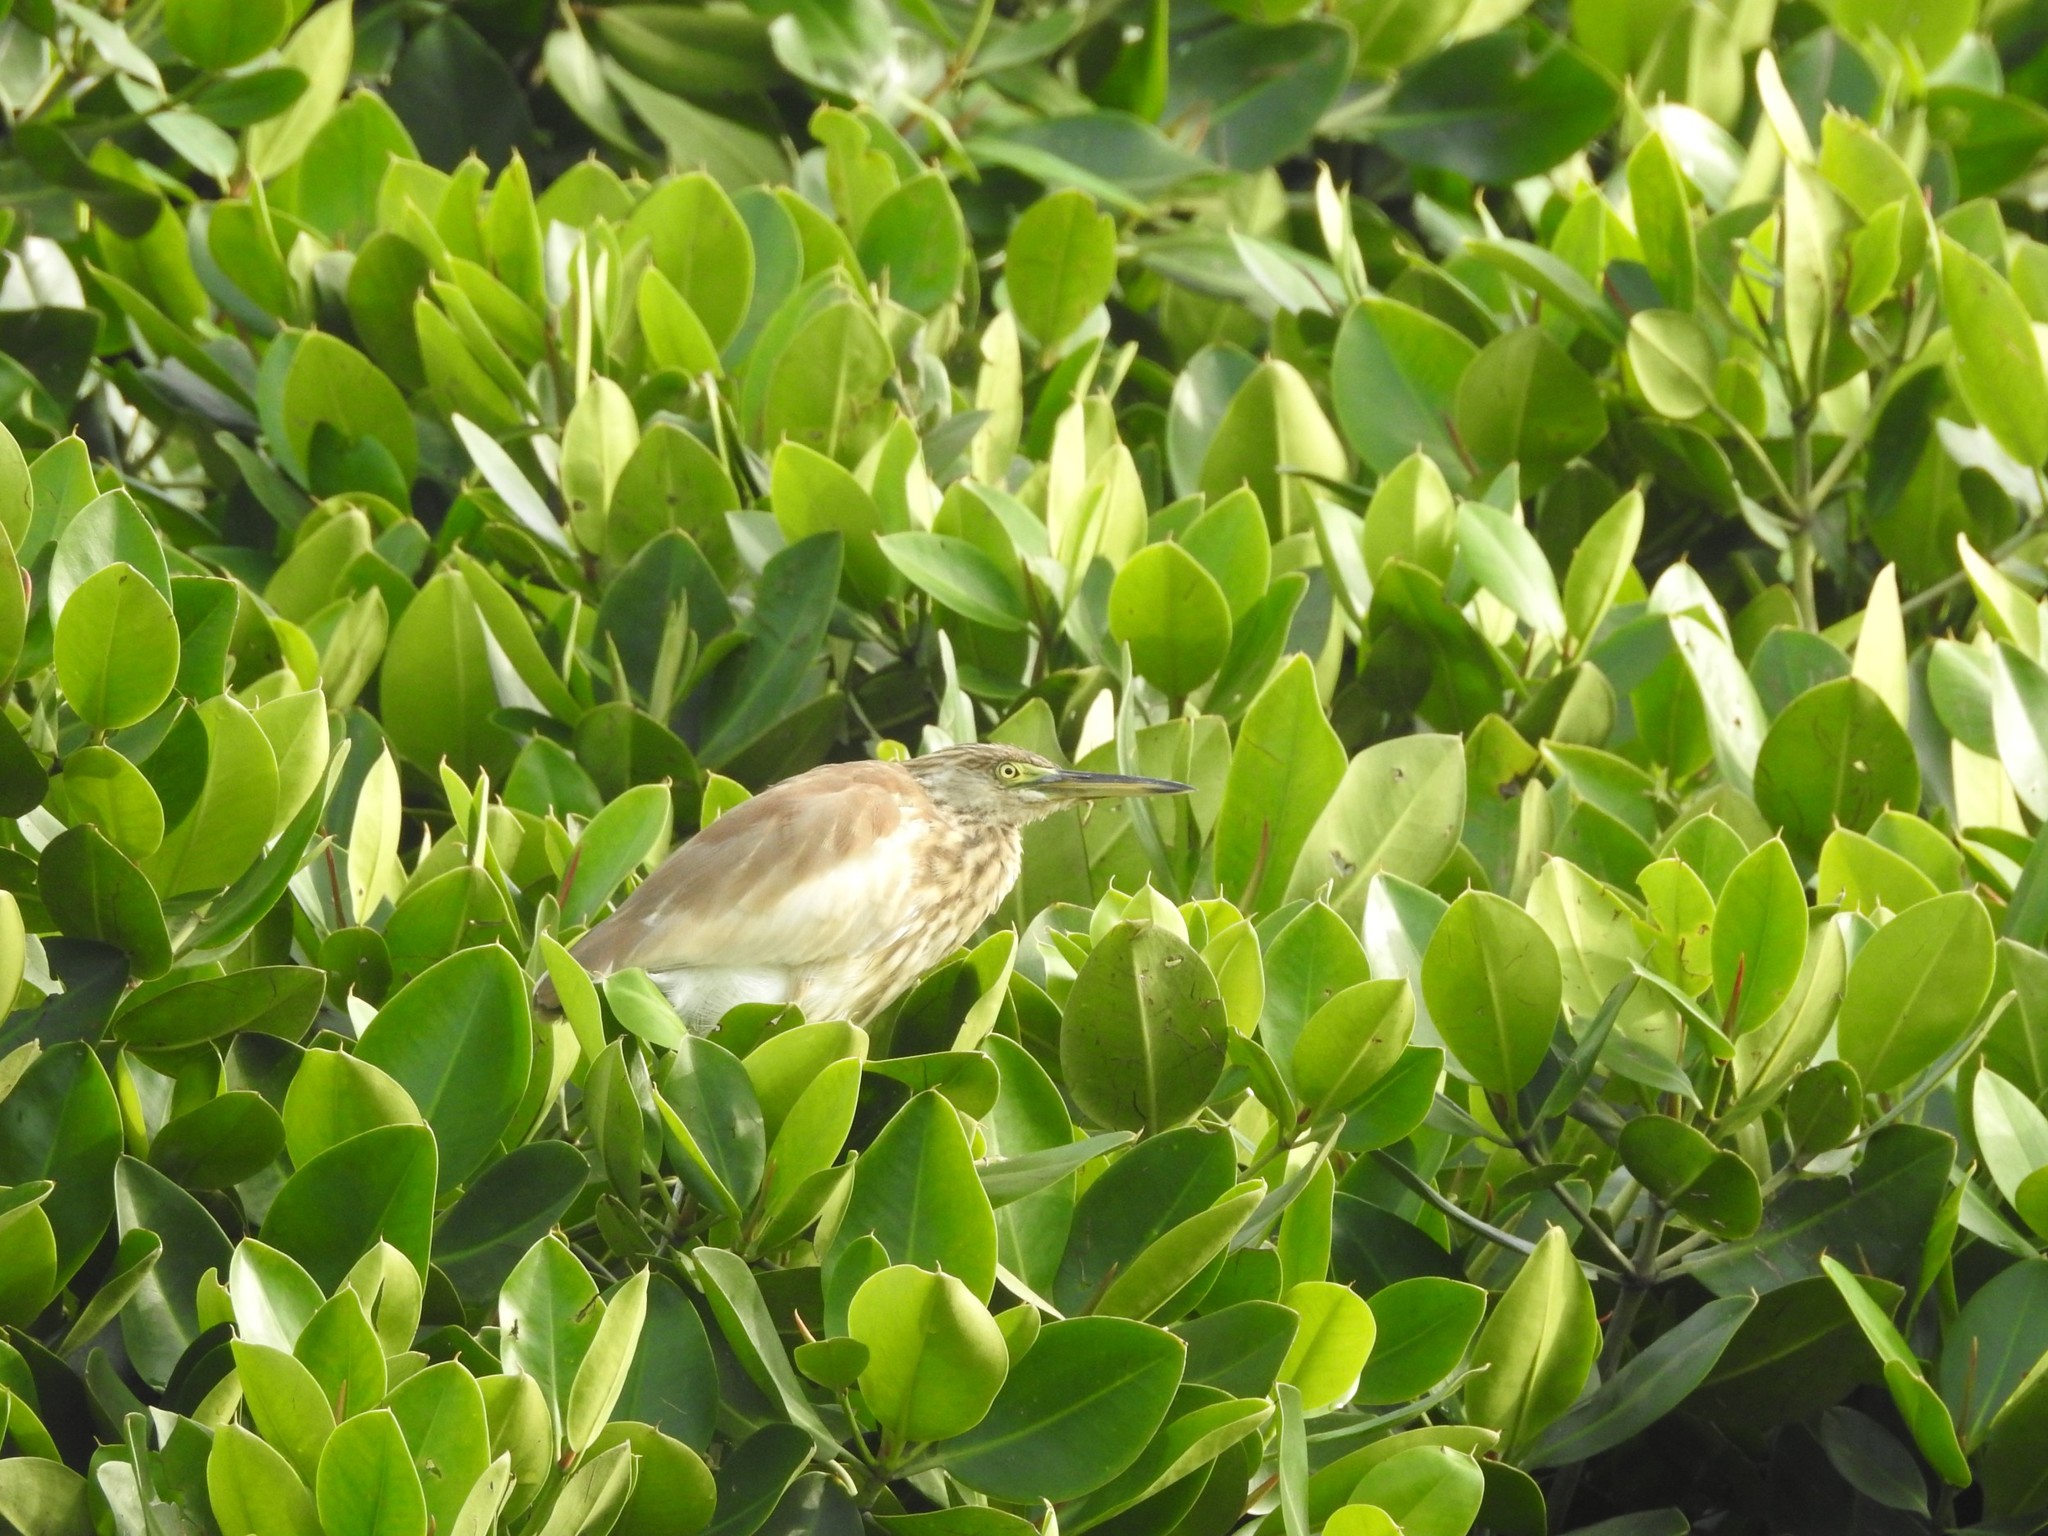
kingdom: Animalia
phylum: Chordata
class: Aves
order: Pelecaniformes
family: Ardeidae
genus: Ardeola
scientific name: Ardeola grayii
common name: Indian pond heron
